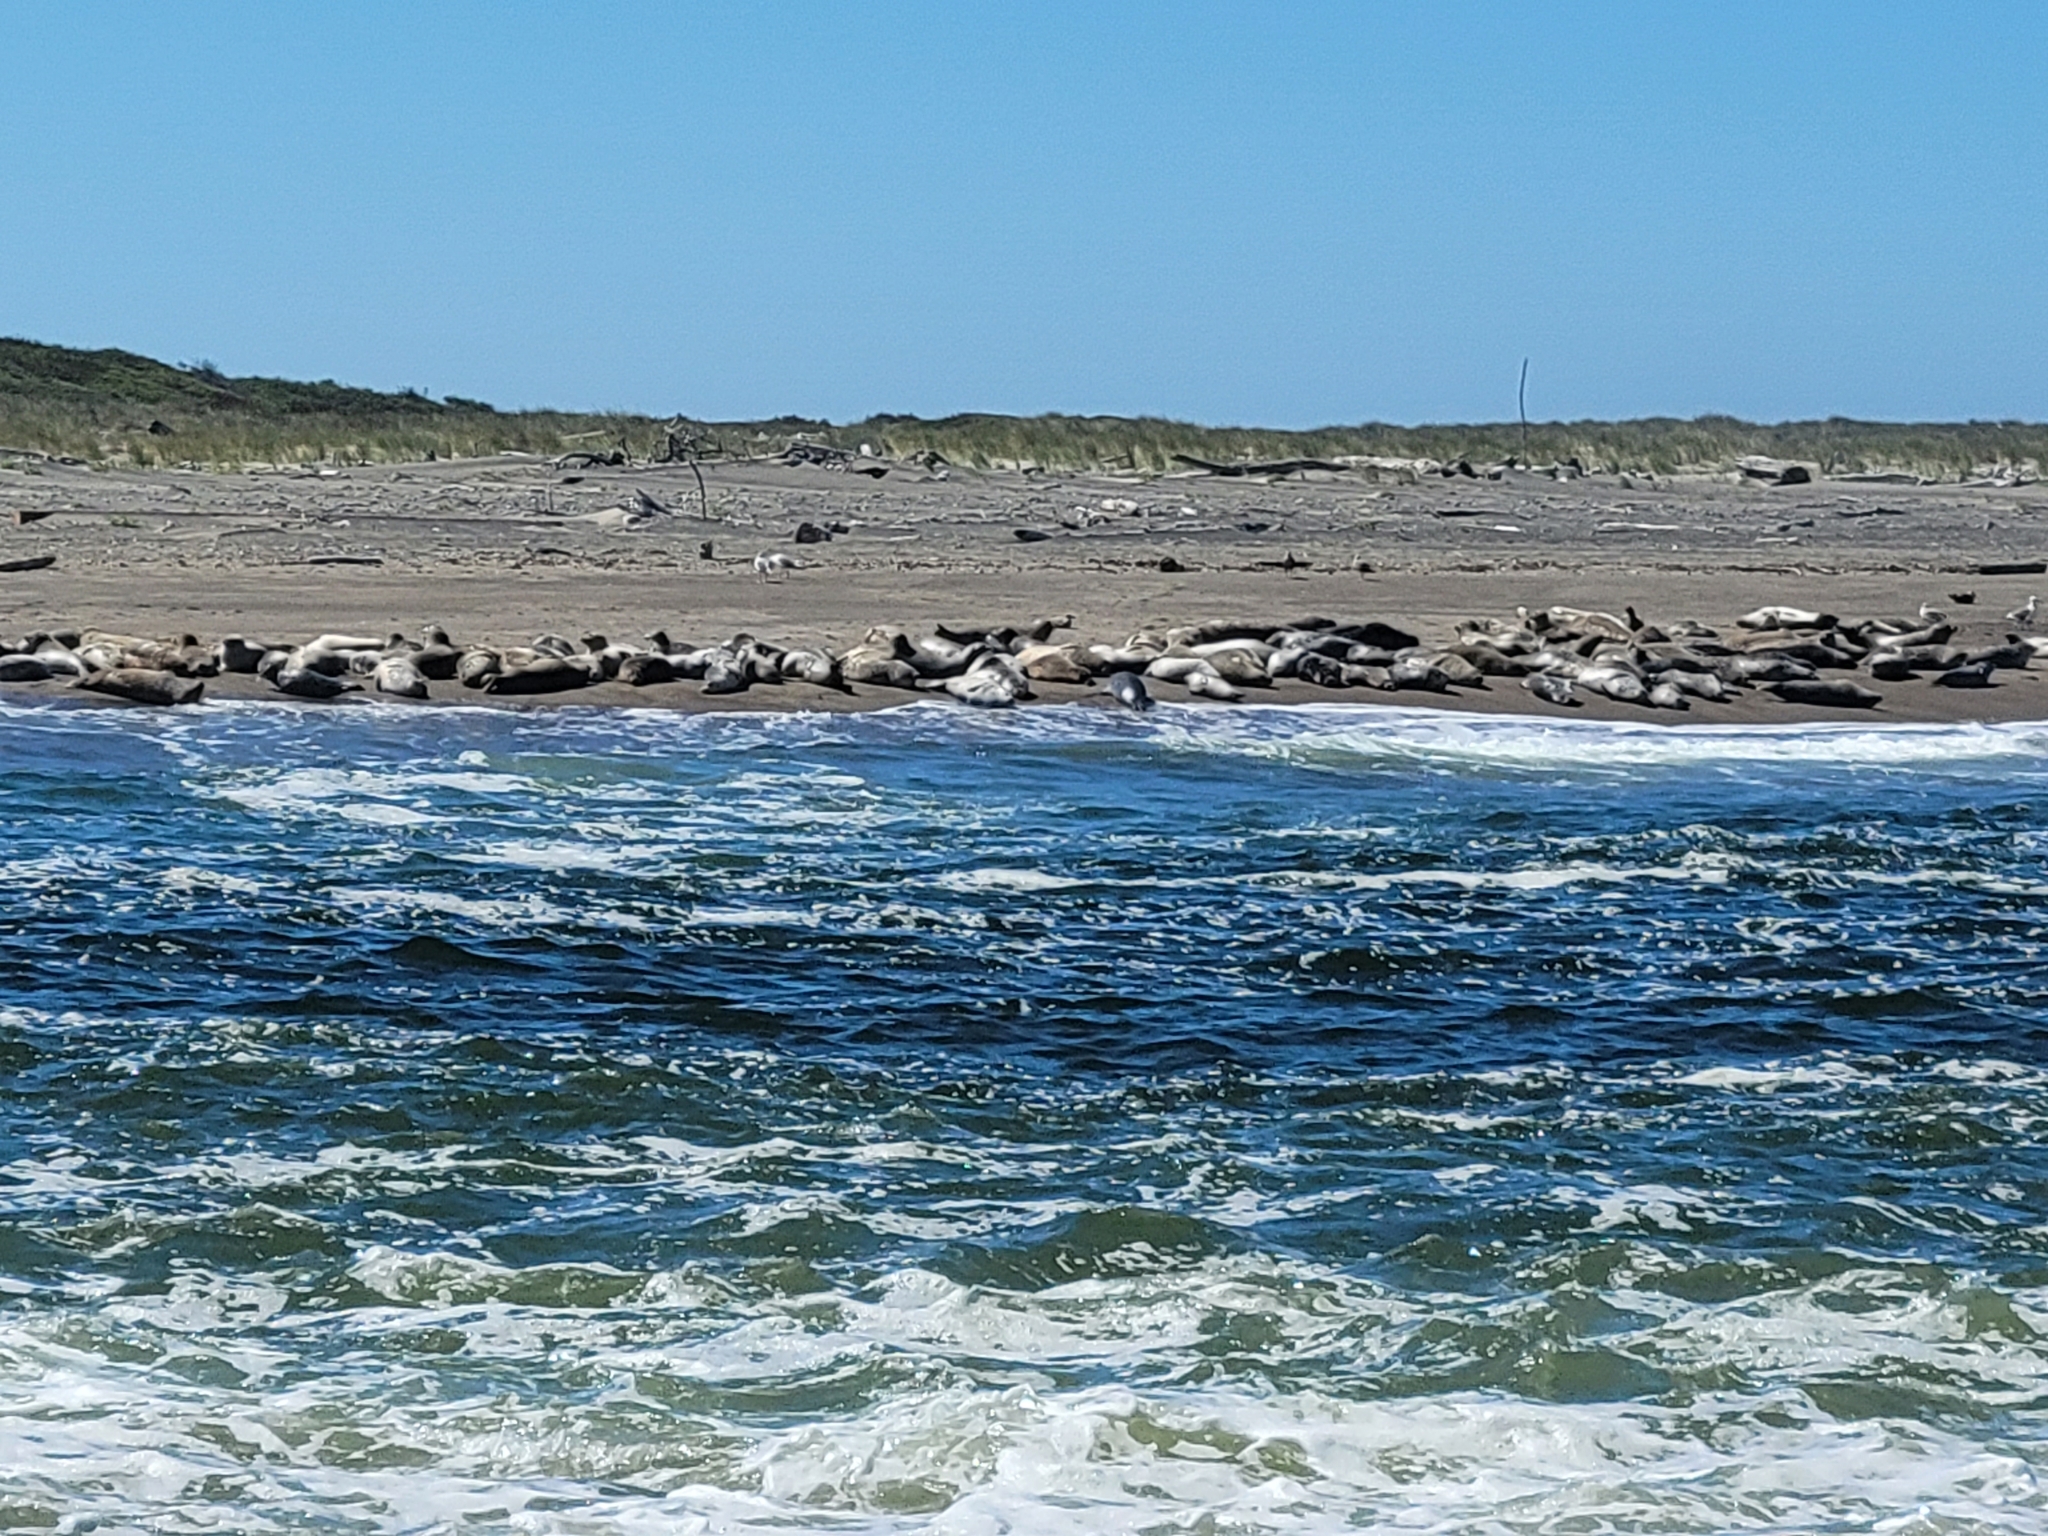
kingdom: Animalia
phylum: Chordata
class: Mammalia
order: Carnivora
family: Phocidae
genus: Phoca
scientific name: Phoca vitulina
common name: Harbor seal
